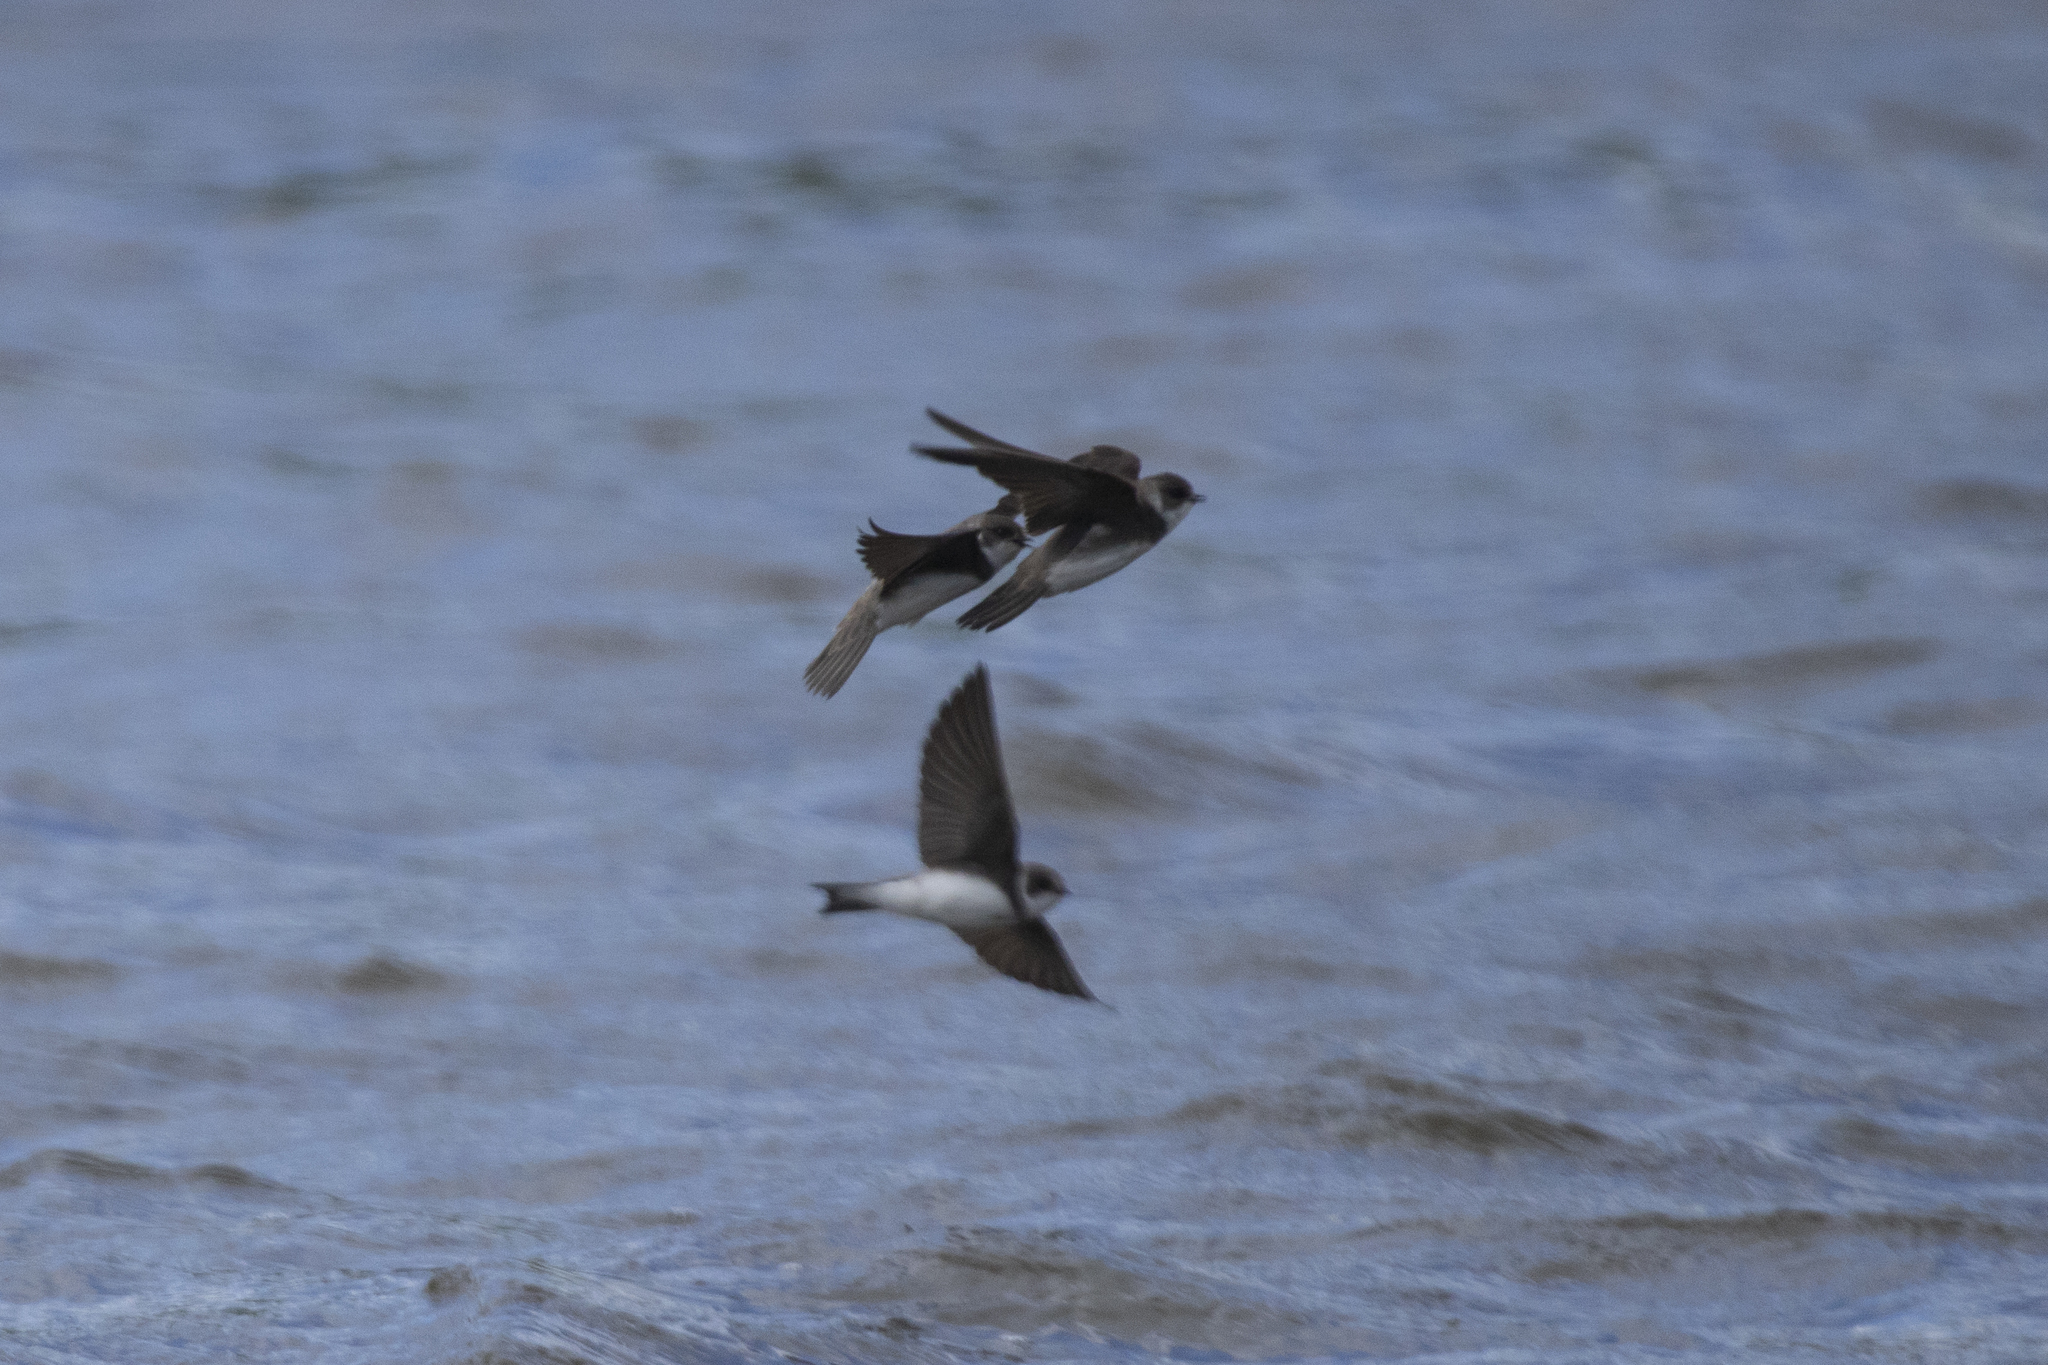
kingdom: Animalia
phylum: Chordata
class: Aves
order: Passeriformes
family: Hirundinidae
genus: Riparia
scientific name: Riparia riparia
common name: Sand martin
